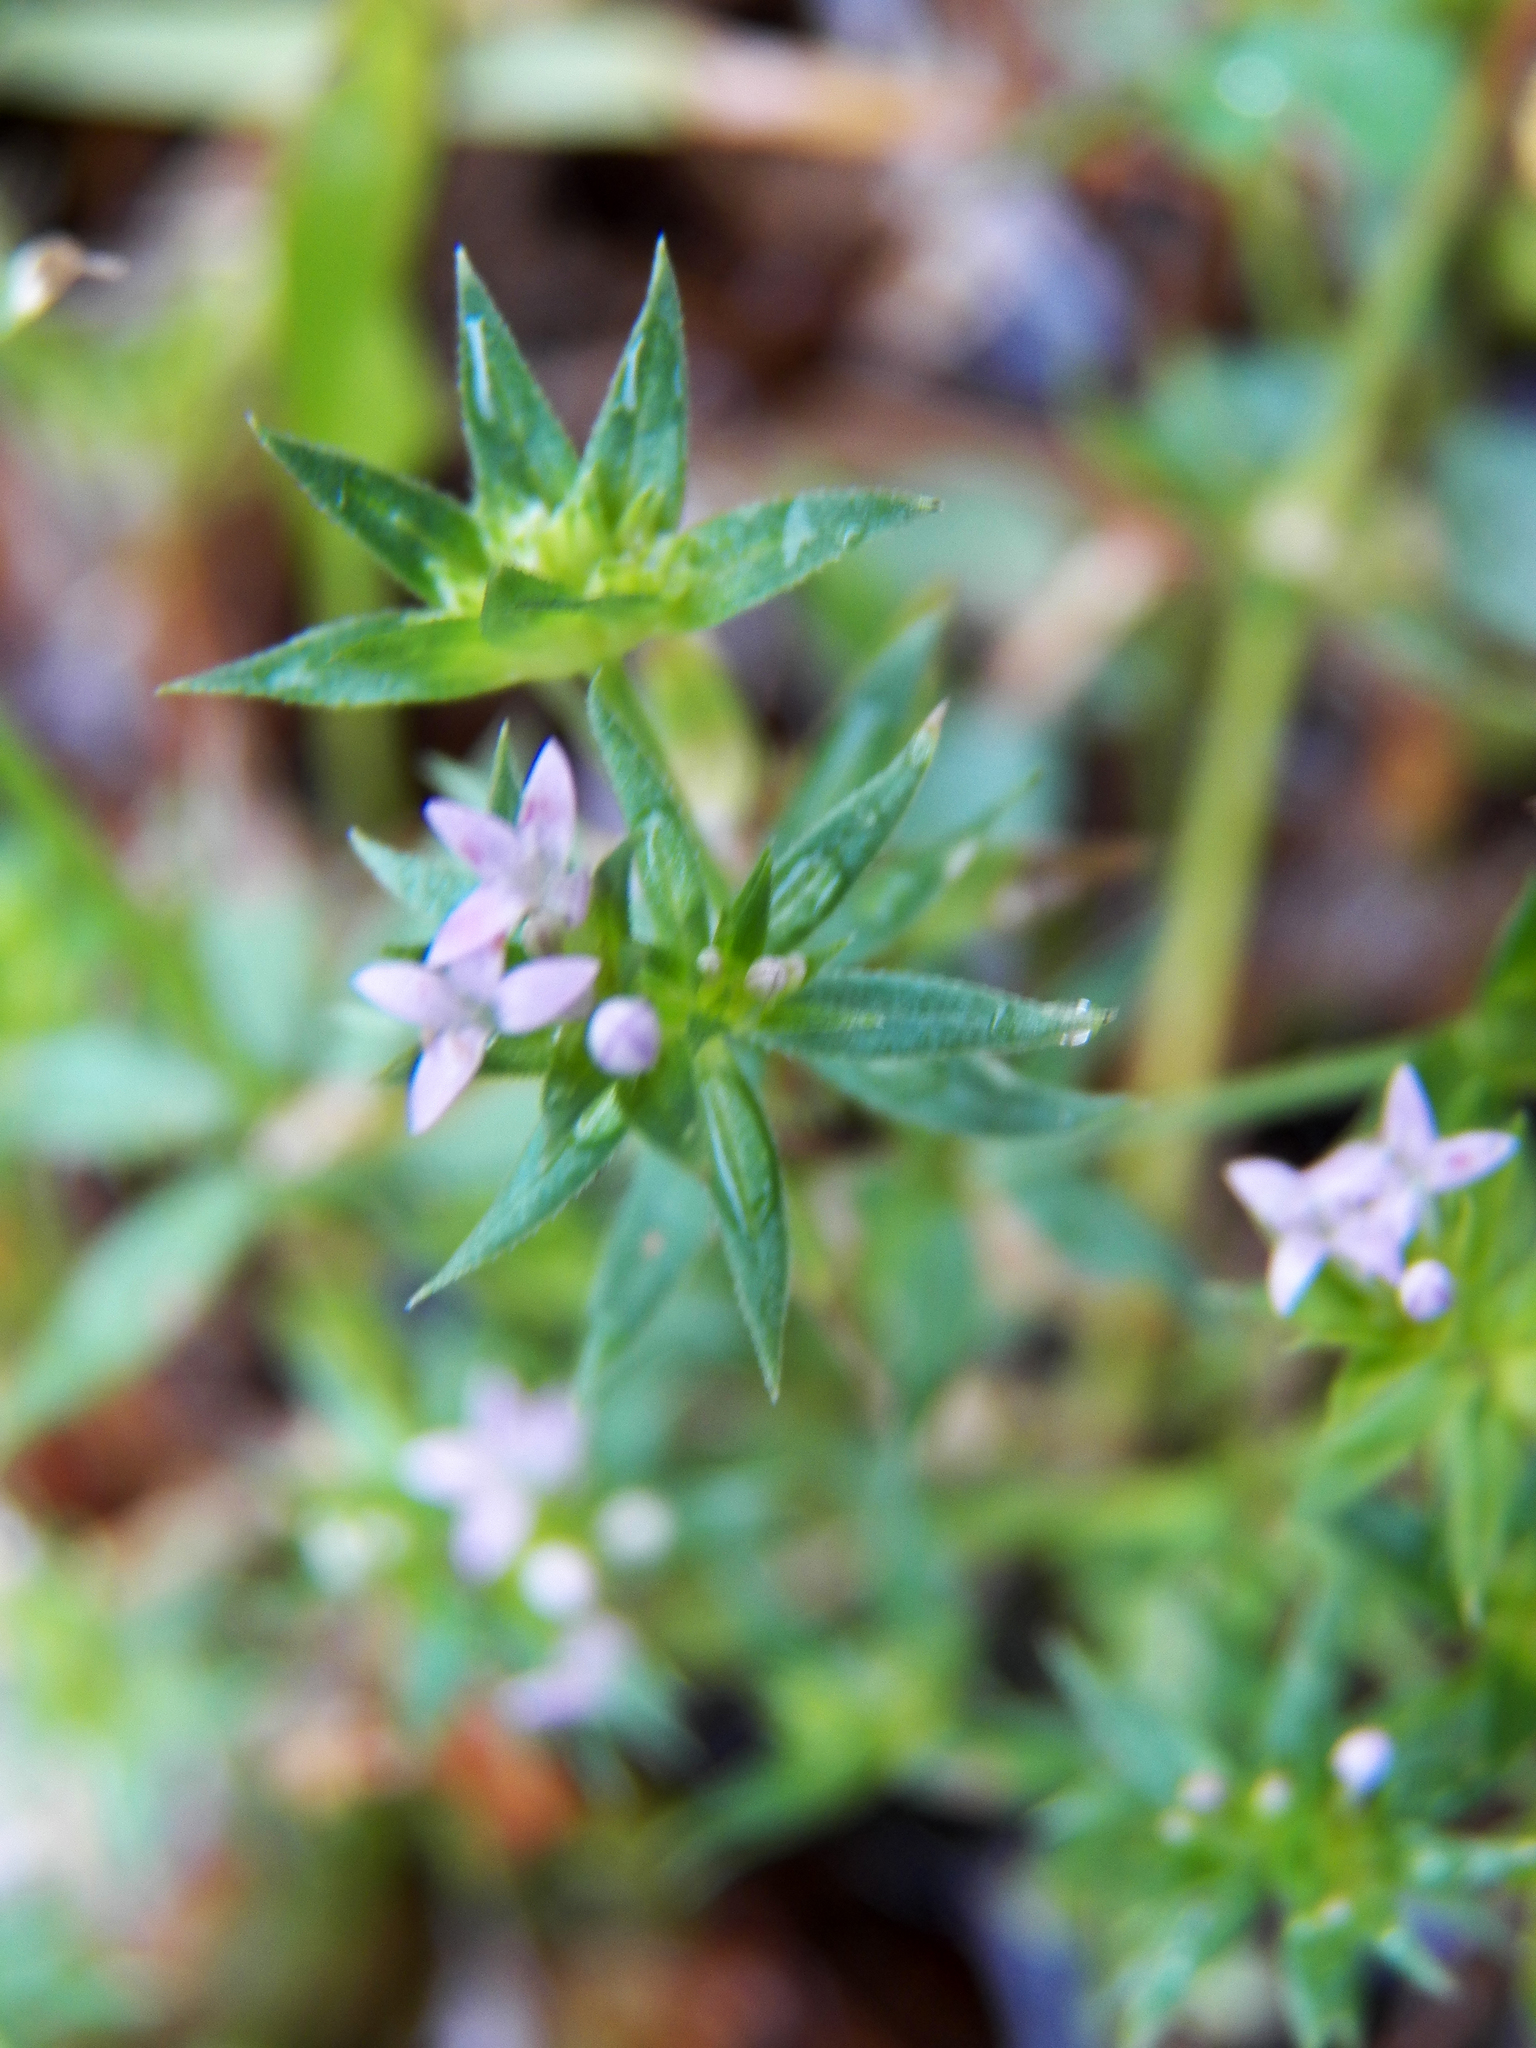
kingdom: Plantae
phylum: Tracheophyta
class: Magnoliopsida
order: Gentianales
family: Rubiaceae
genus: Sherardia
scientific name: Sherardia arvensis
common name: Field madder
